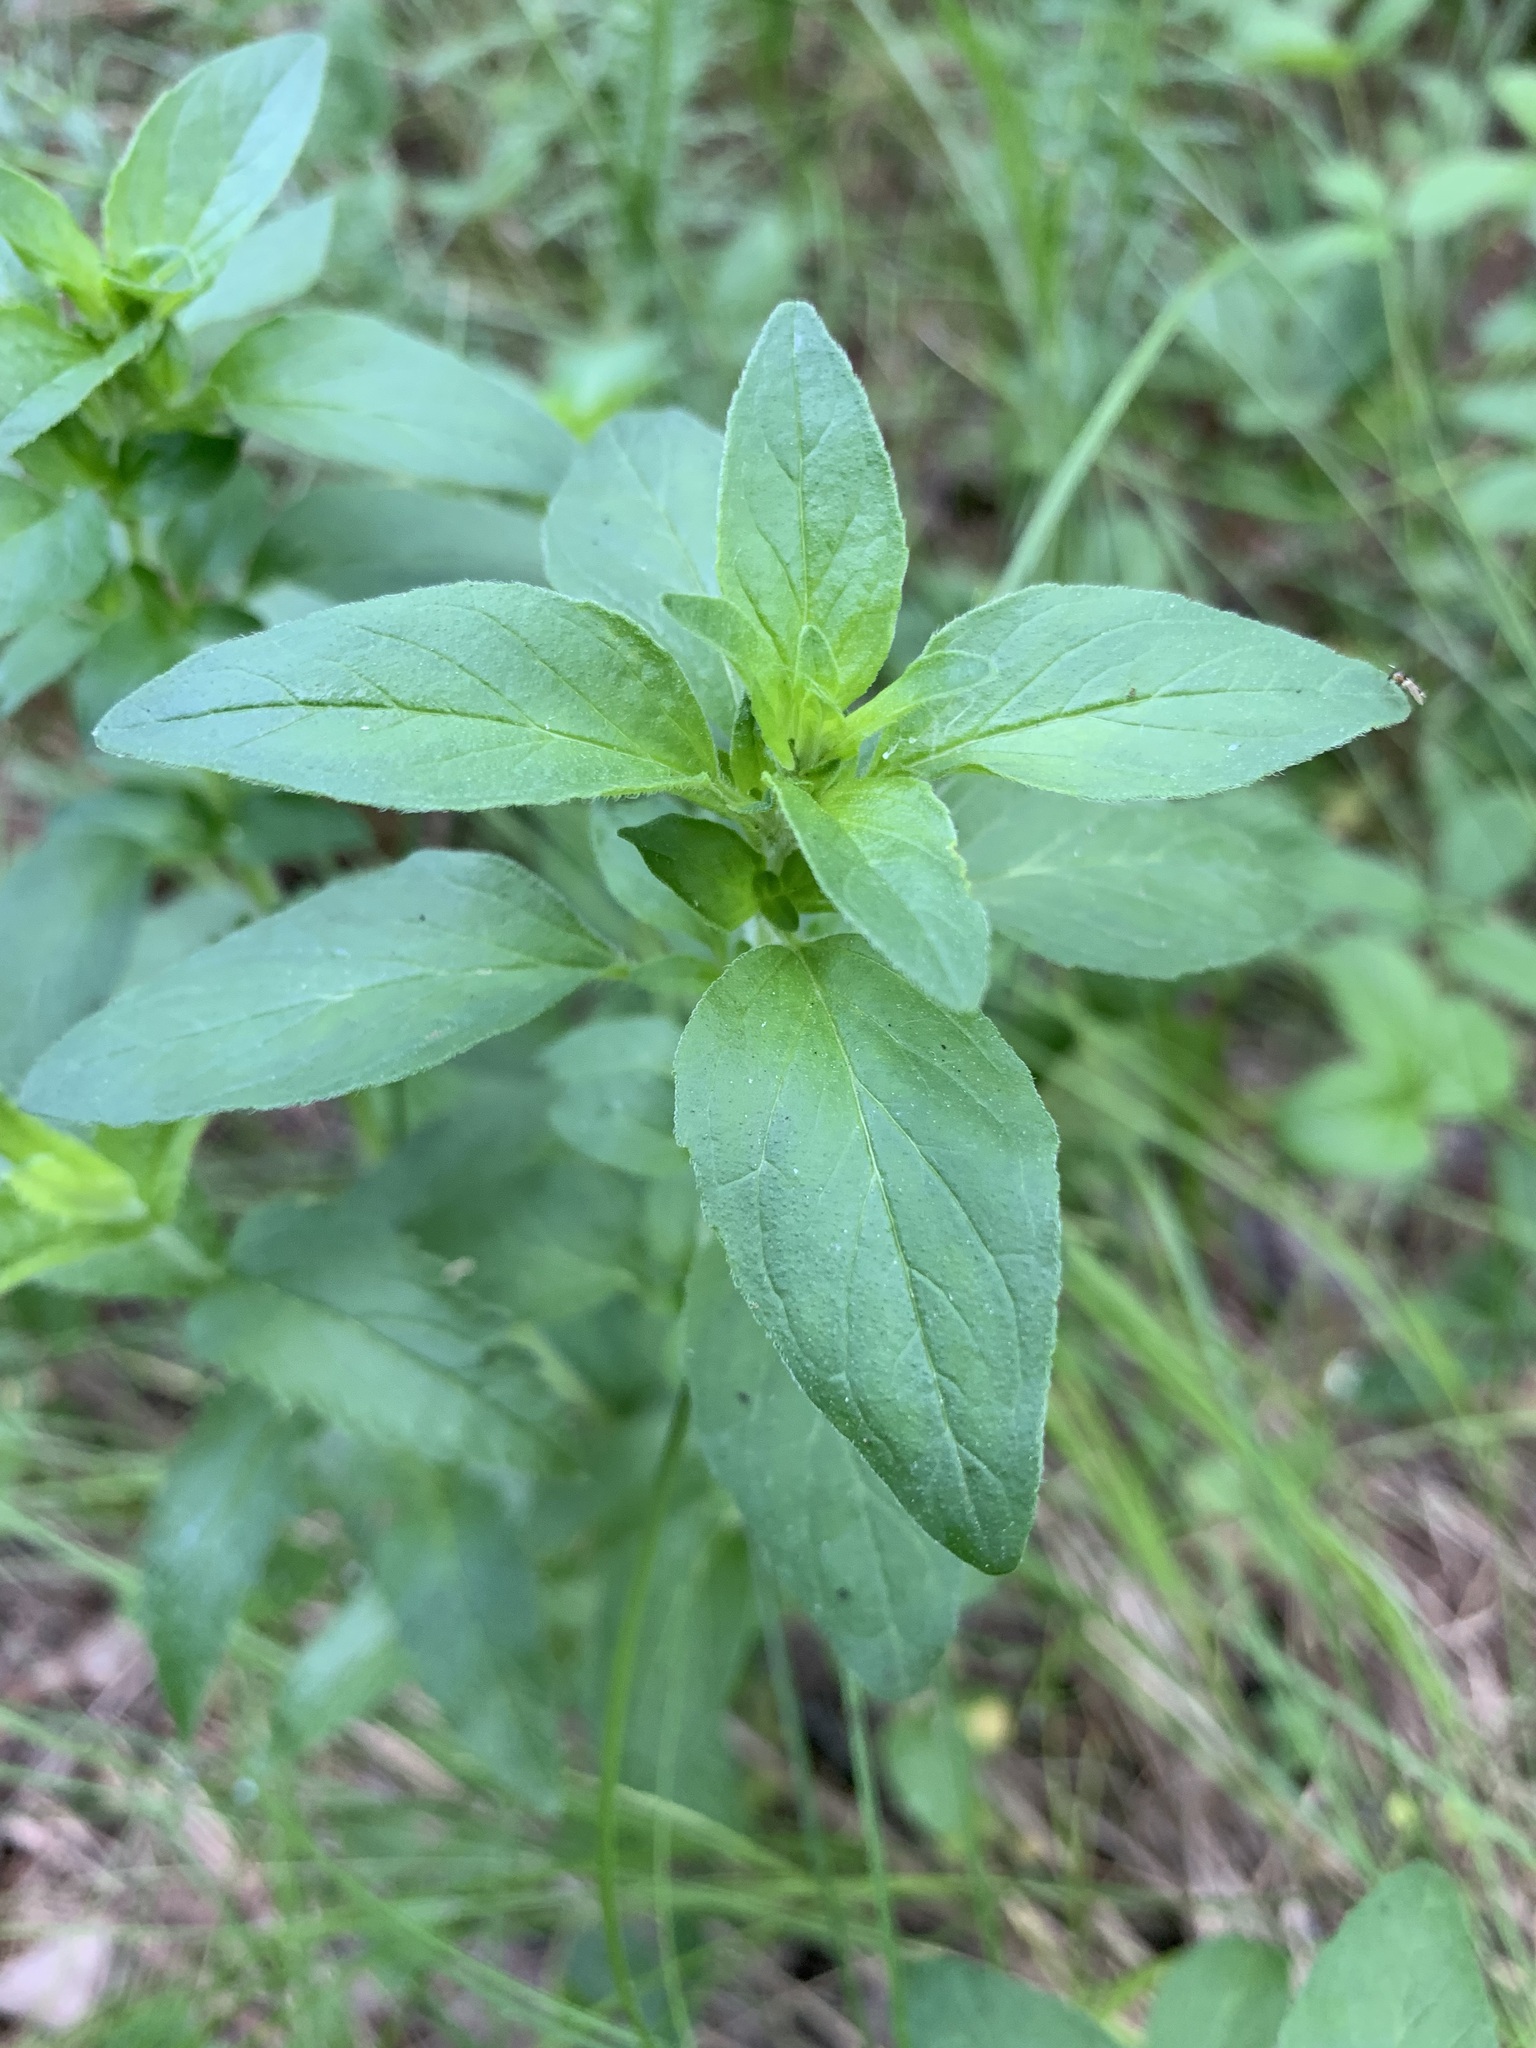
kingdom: Plantae
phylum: Tracheophyta
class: Magnoliopsida
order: Lamiales
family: Lamiaceae
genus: Origanum
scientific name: Origanum vulgare
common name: Wild marjoram
